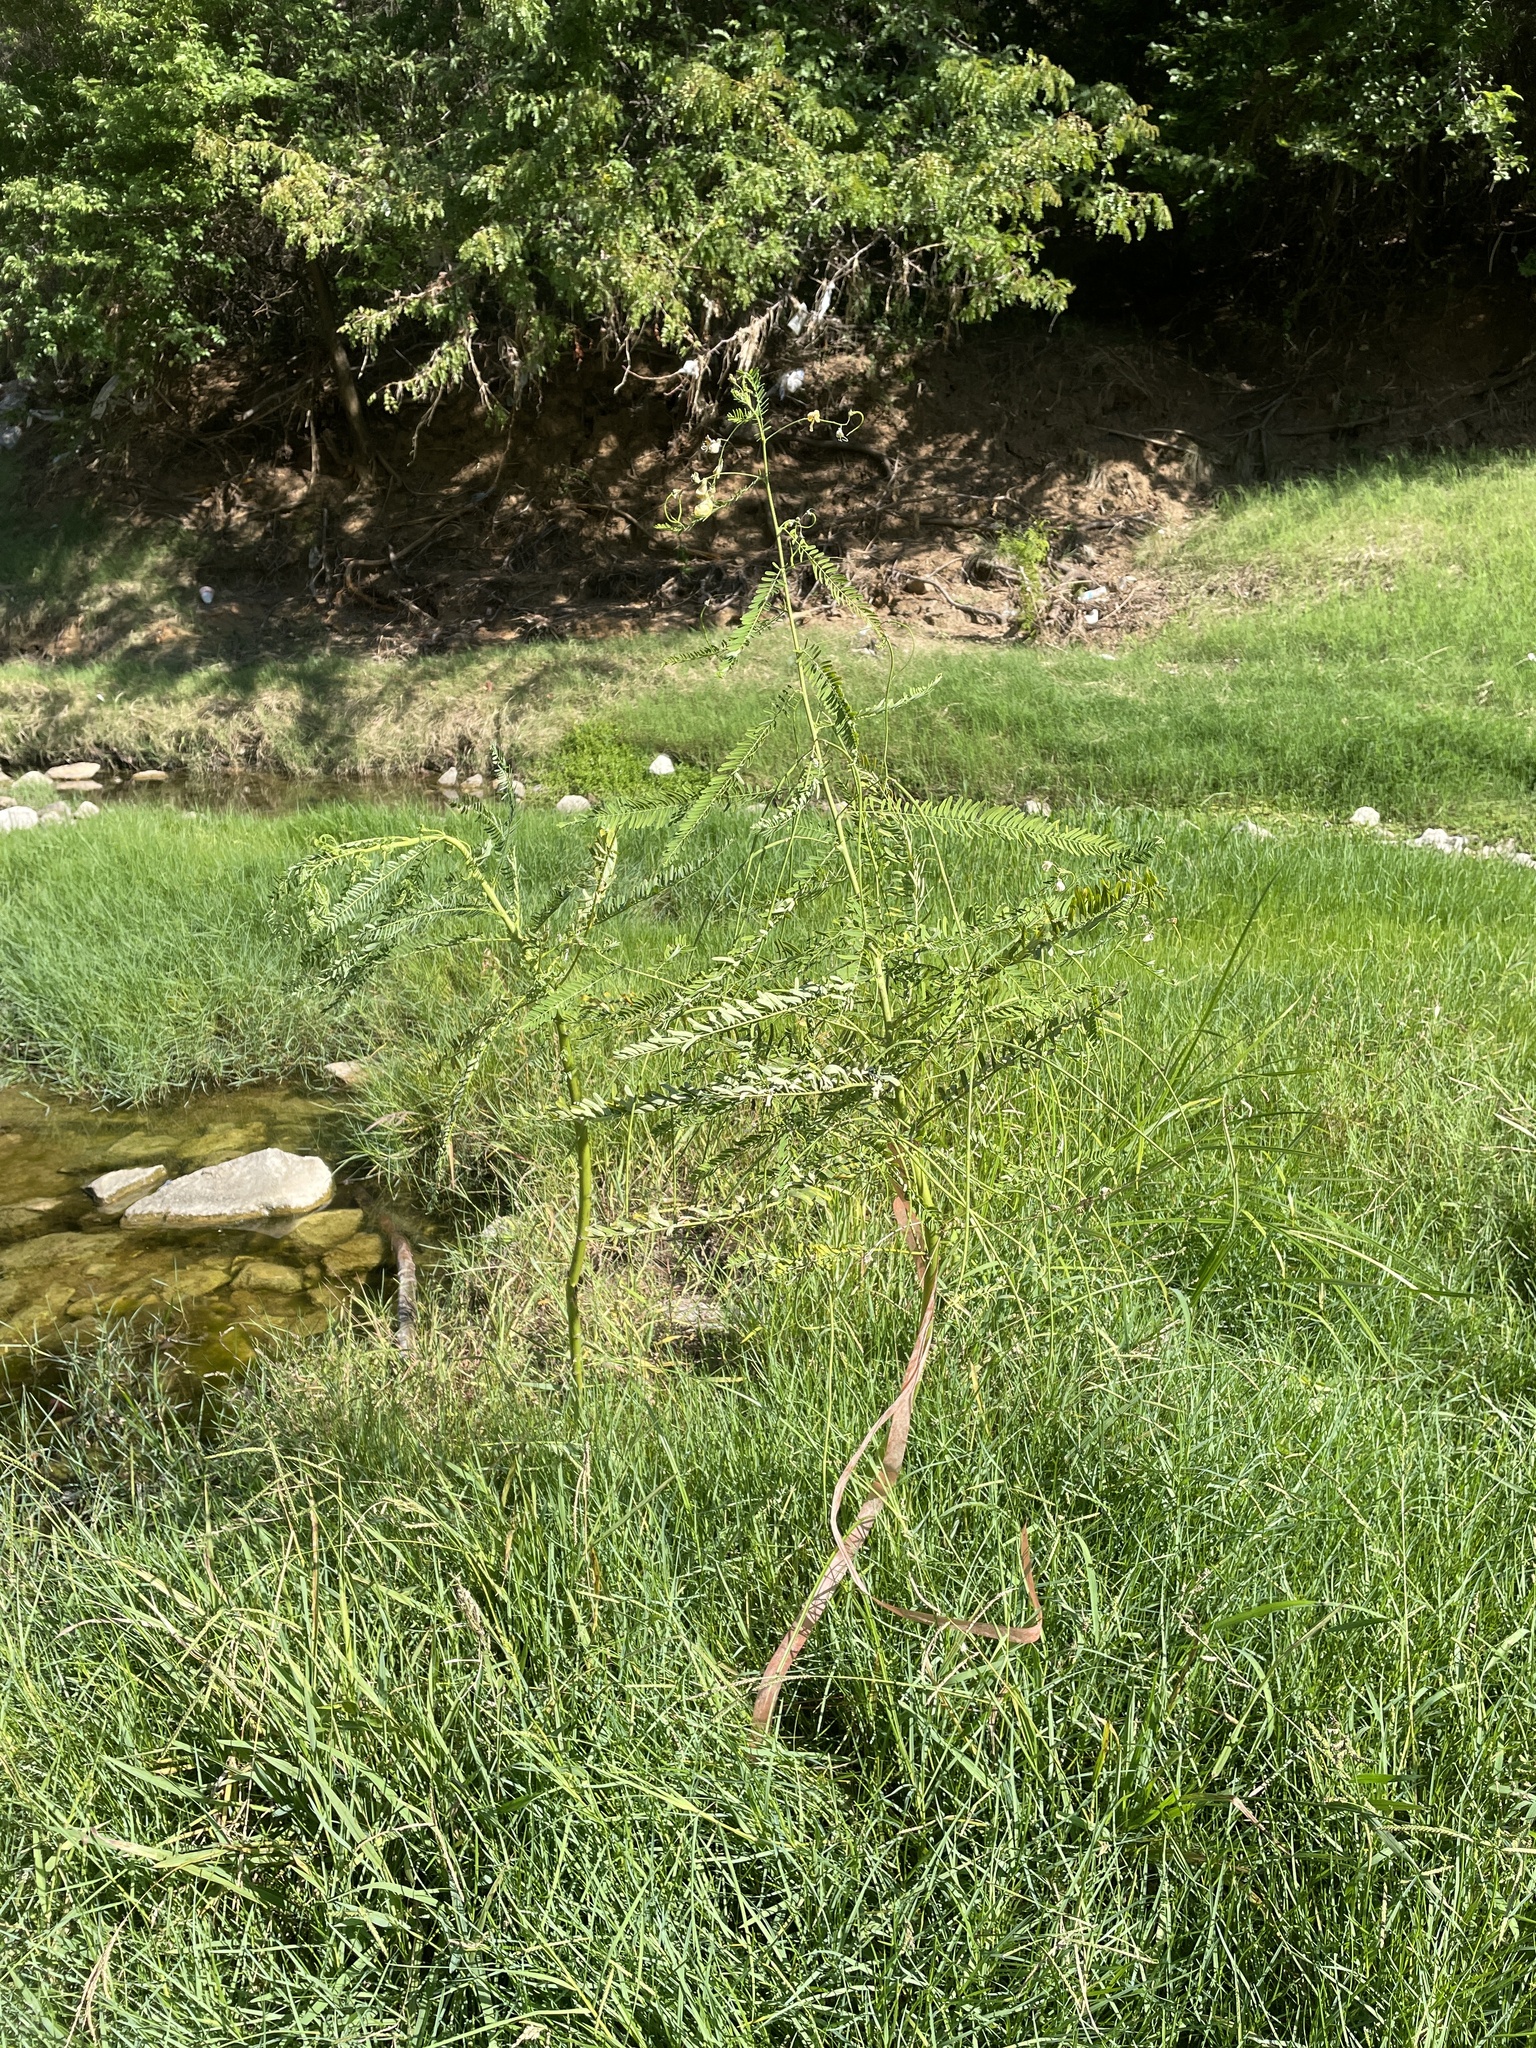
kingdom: Plantae
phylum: Tracheophyta
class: Magnoliopsida
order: Fabales
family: Fabaceae
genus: Sesbania
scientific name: Sesbania herbacea
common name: Bigpod sesbania
